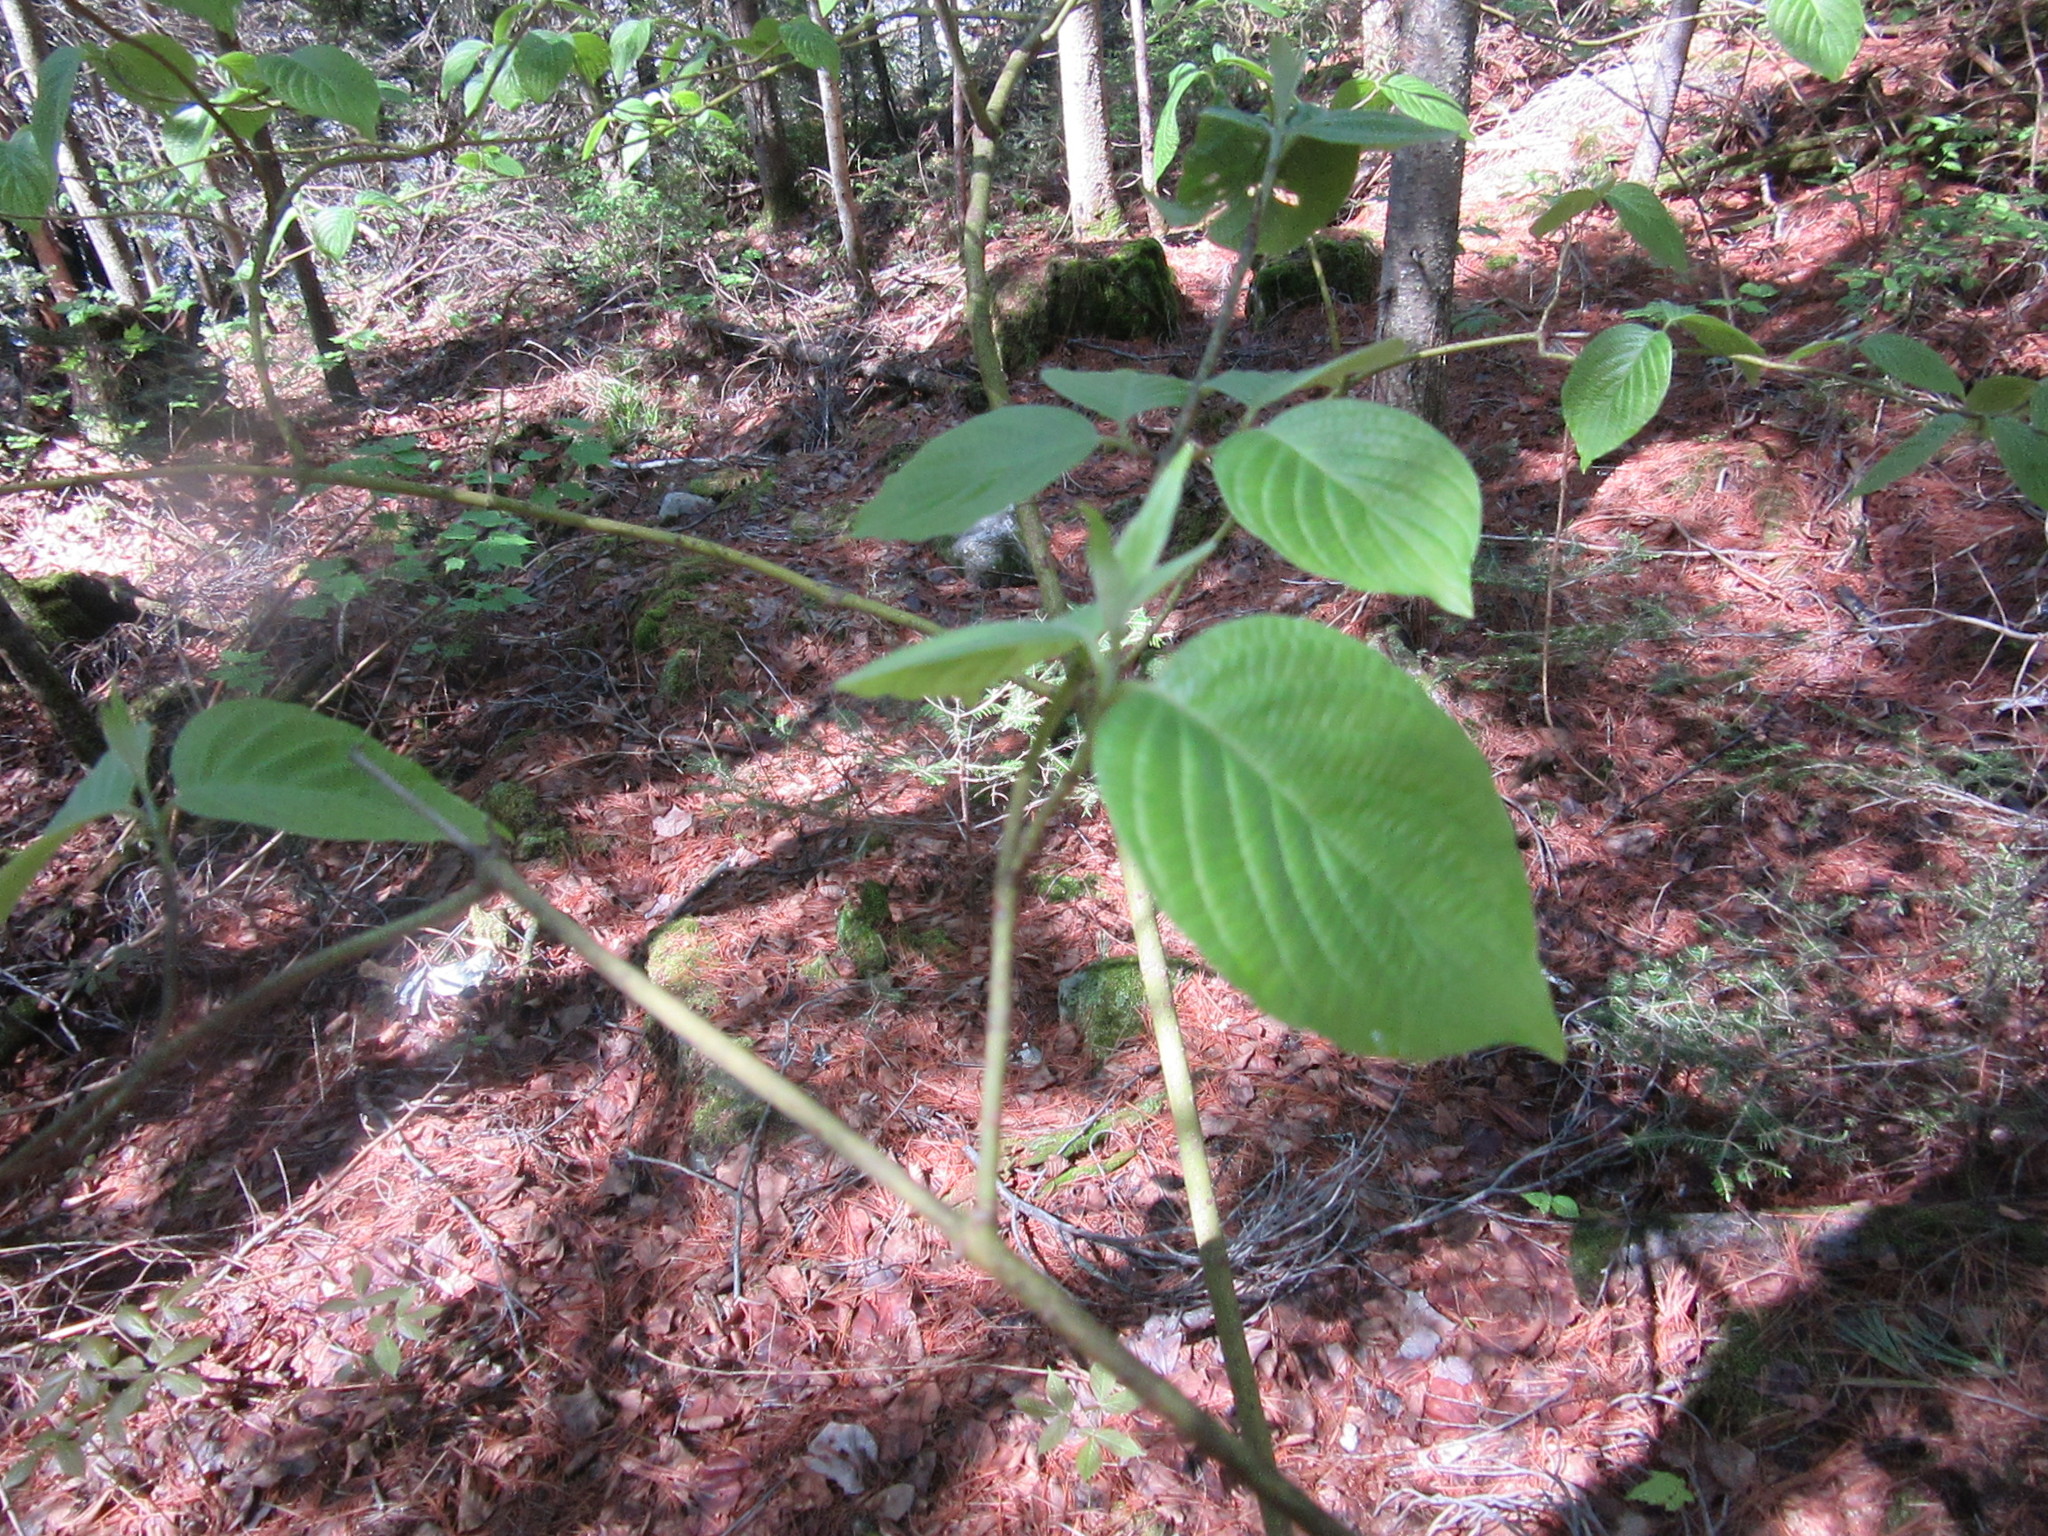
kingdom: Plantae
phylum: Tracheophyta
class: Magnoliopsida
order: Cornales
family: Cornaceae
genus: Cornus
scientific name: Cornus rugosa
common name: Round-leaf dogwood
